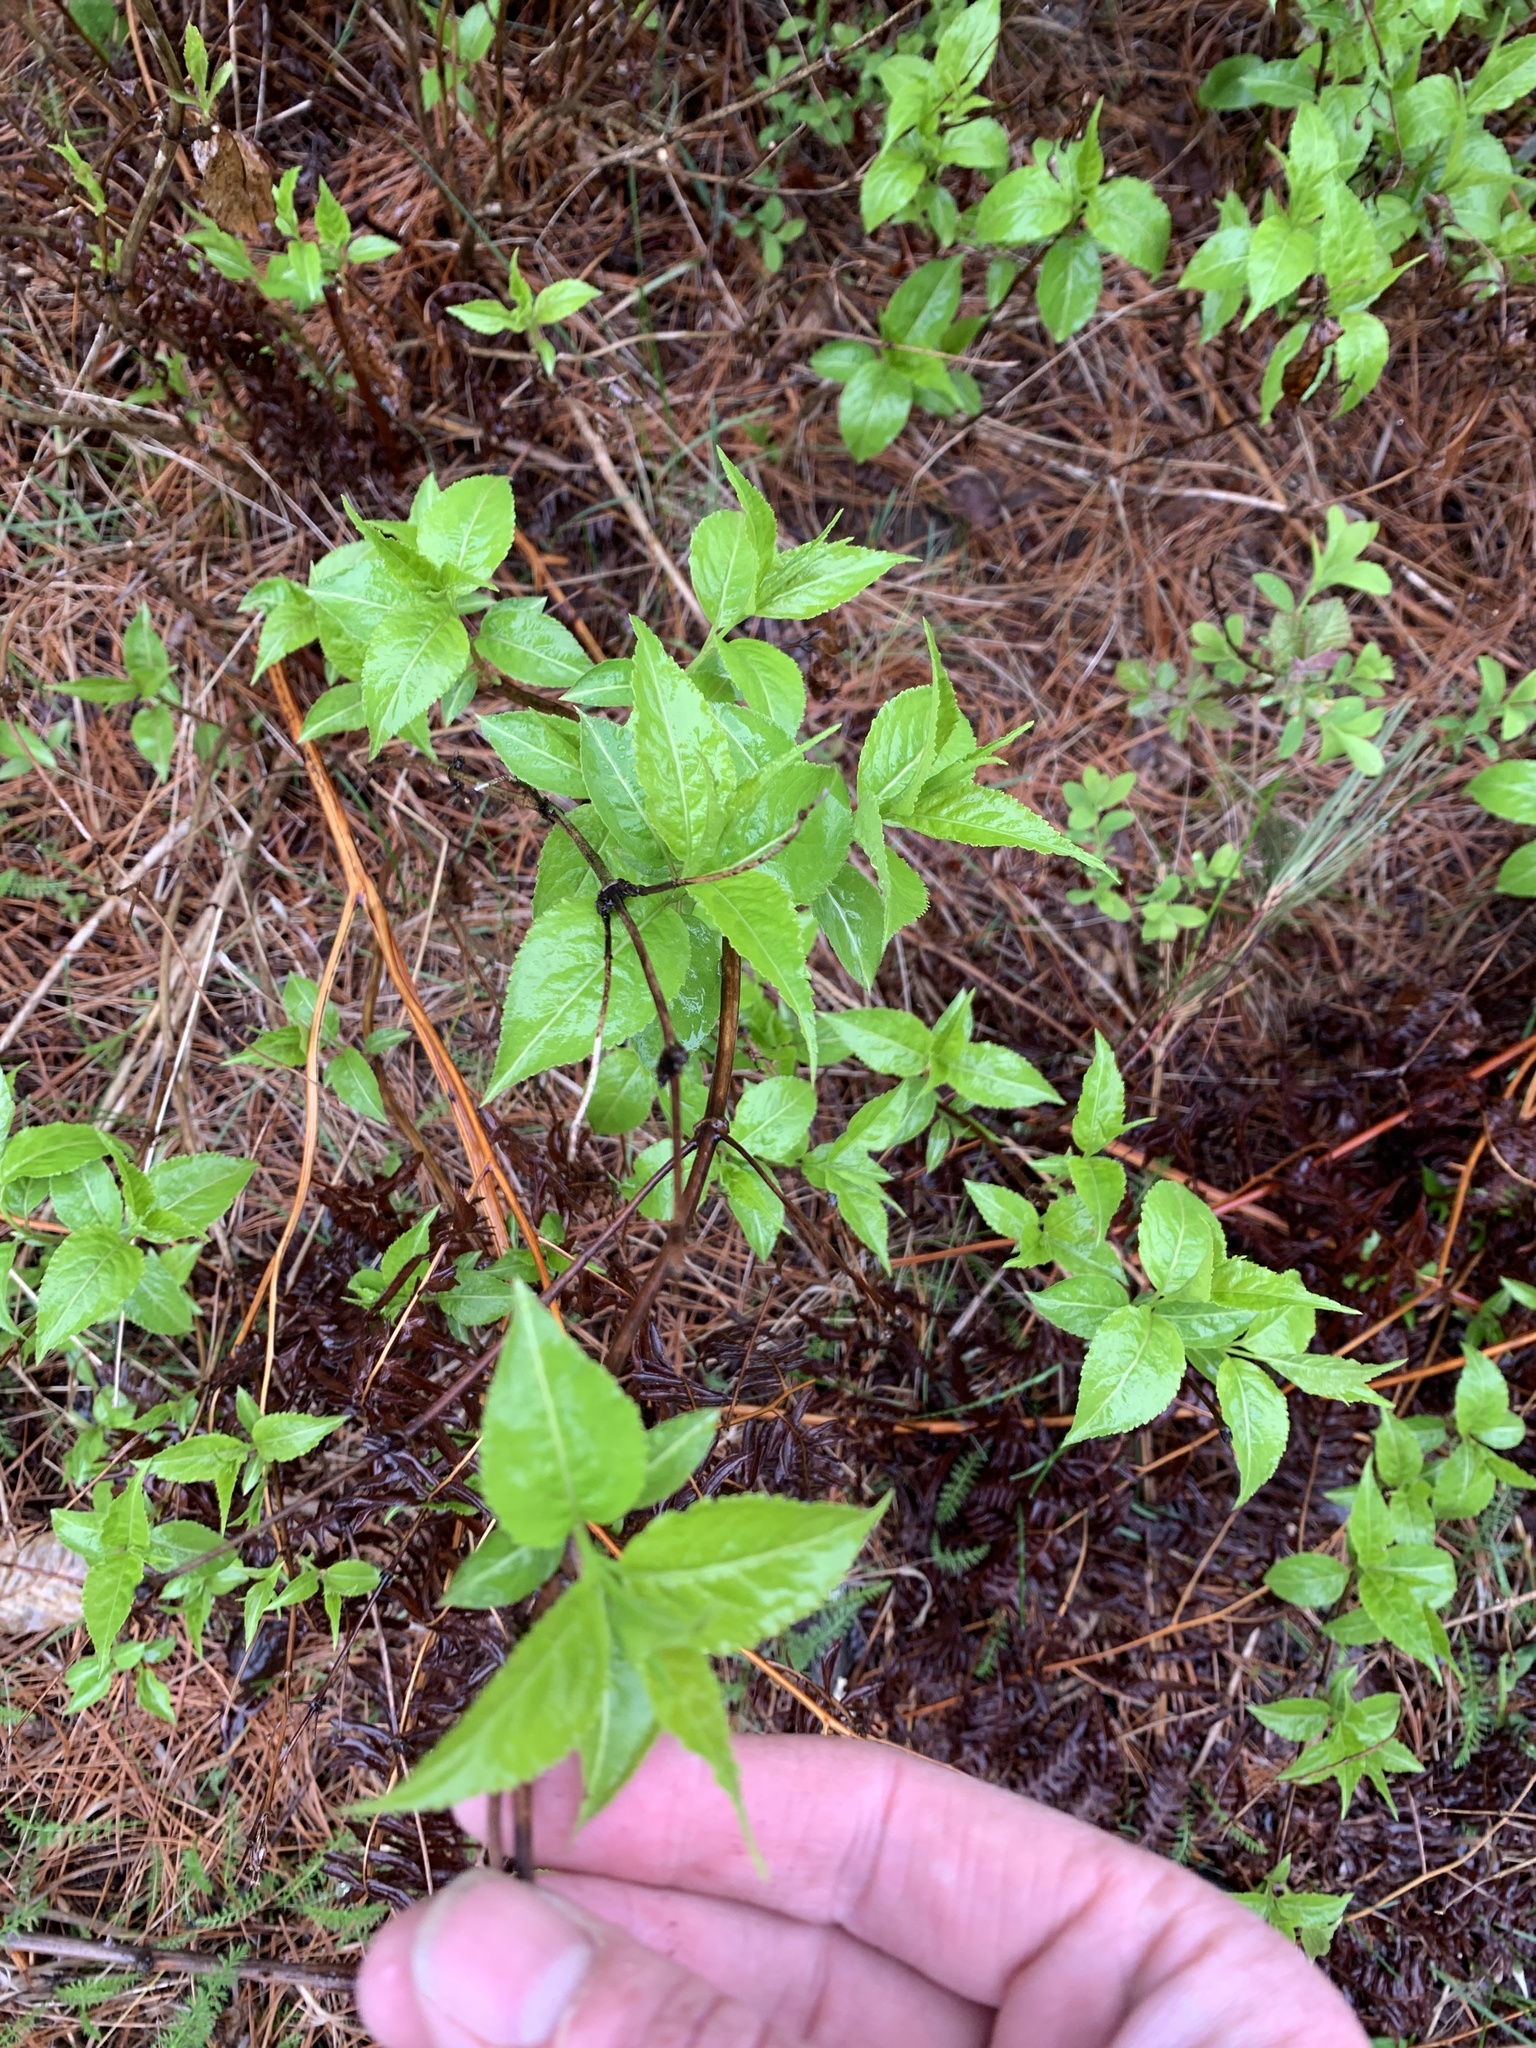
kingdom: Plantae
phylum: Tracheophyta
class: Magnoliopsida
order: Dipsacales
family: Caprifoliaceae
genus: Diervilla
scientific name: Diervilla lonicera
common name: Bush-honeysuckle
